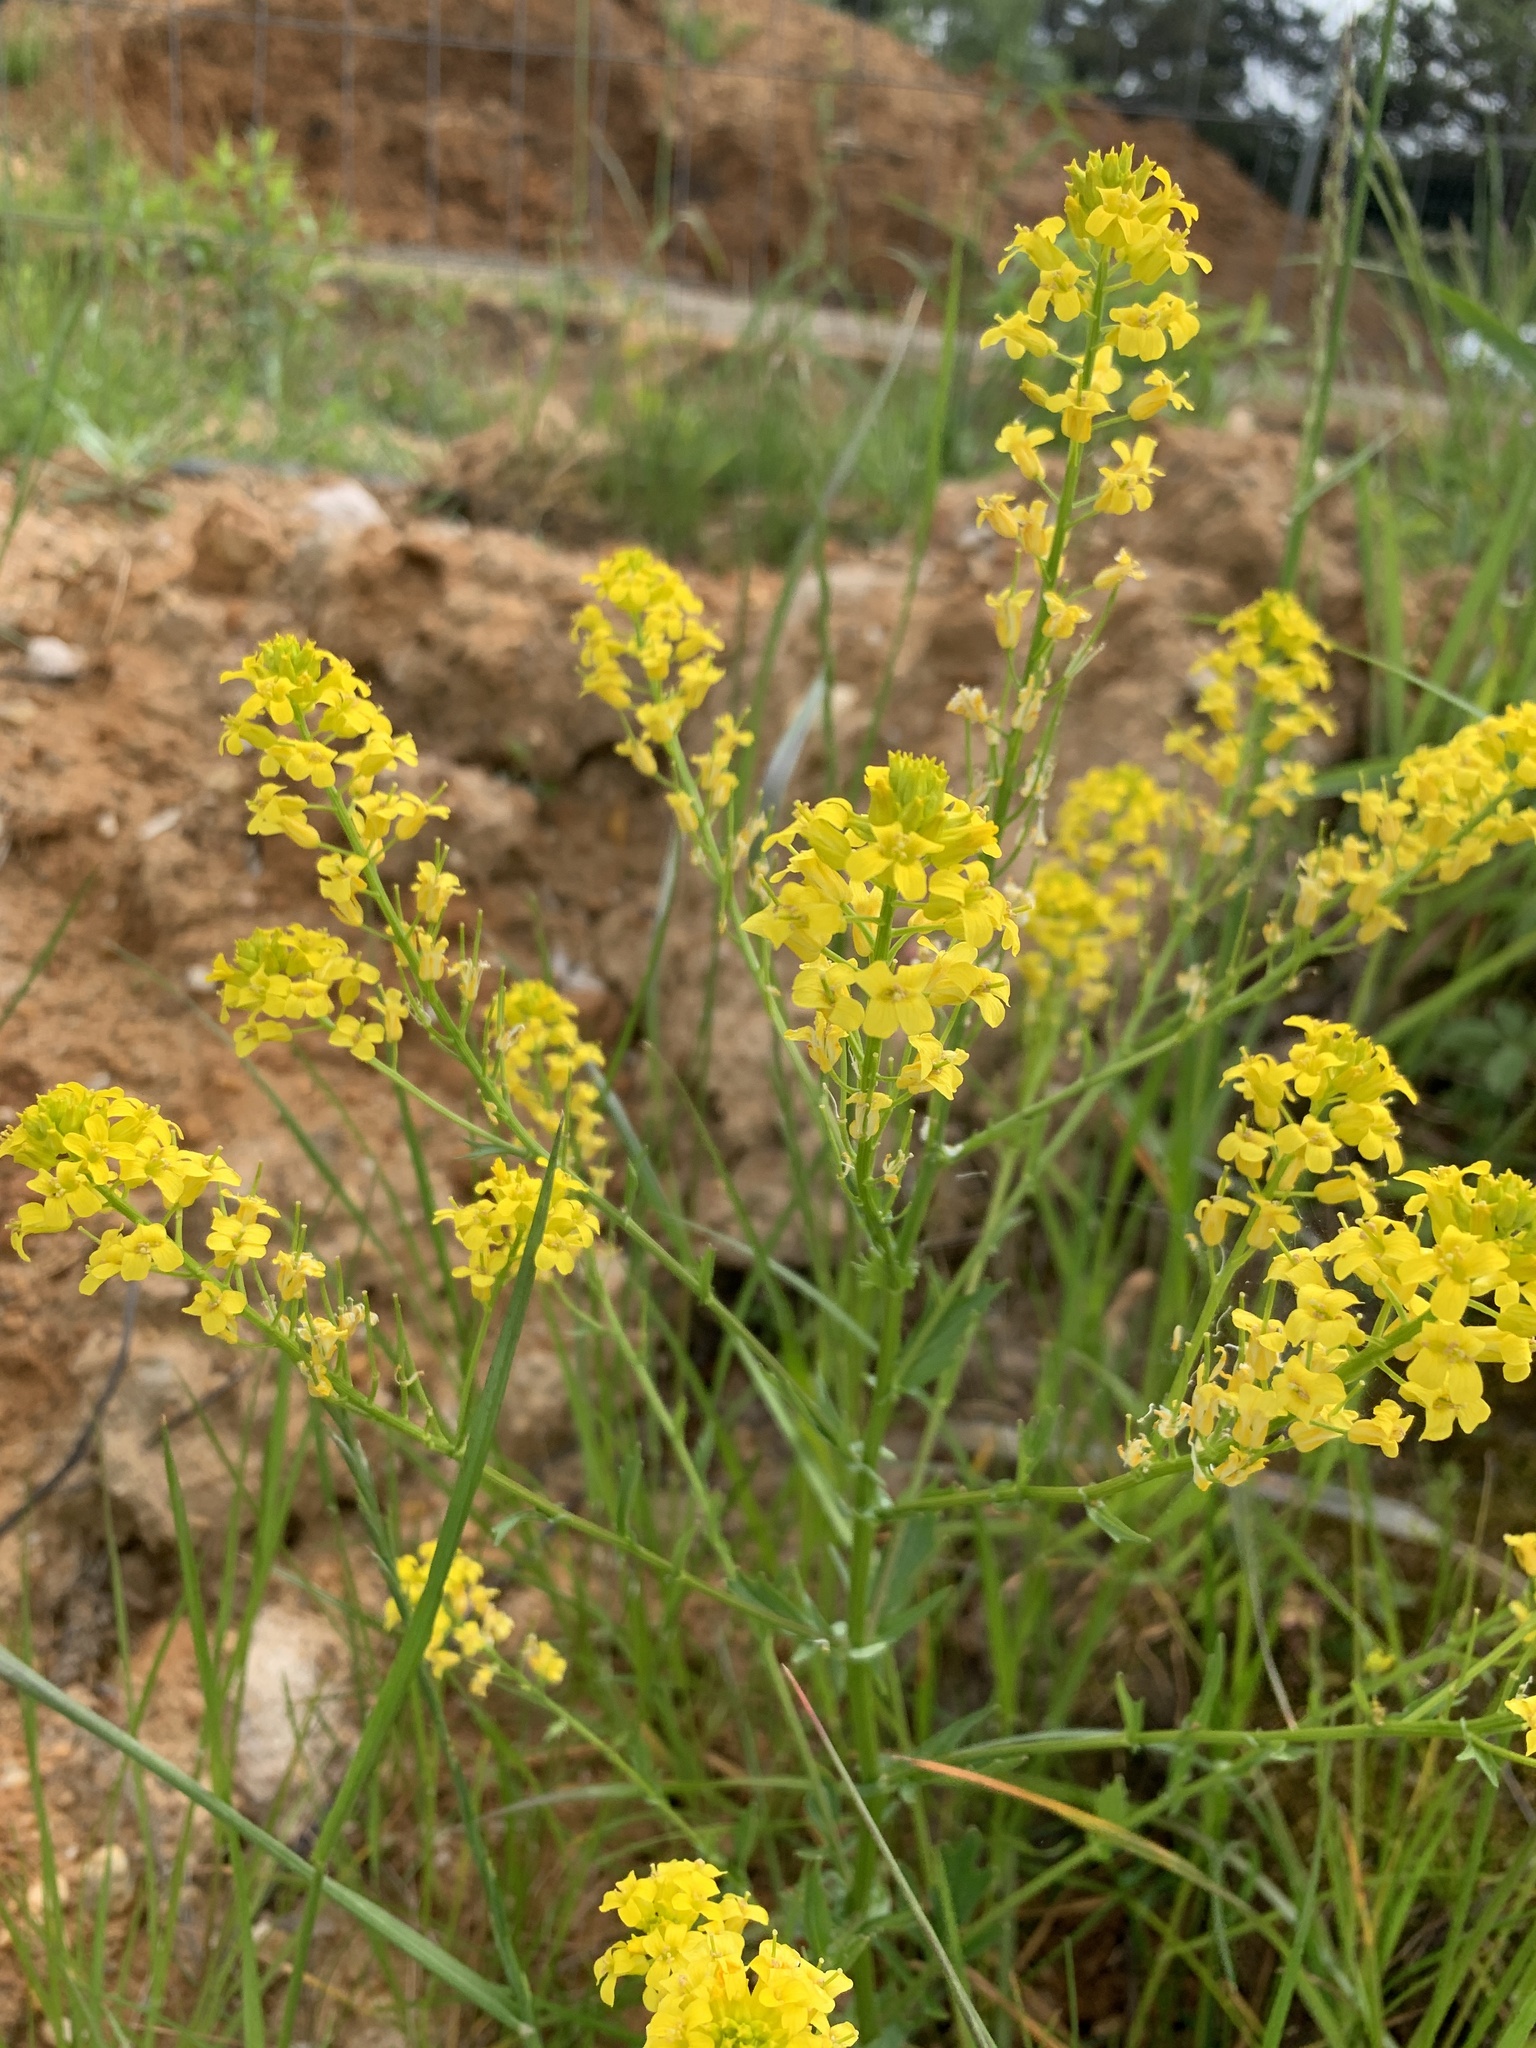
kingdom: Plantae
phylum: Tracheophyta
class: Magnoliopsida
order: Brassicales
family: Brassicaceae
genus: Barbarea
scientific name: Barbarea vulgaris
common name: Cressy-greens
